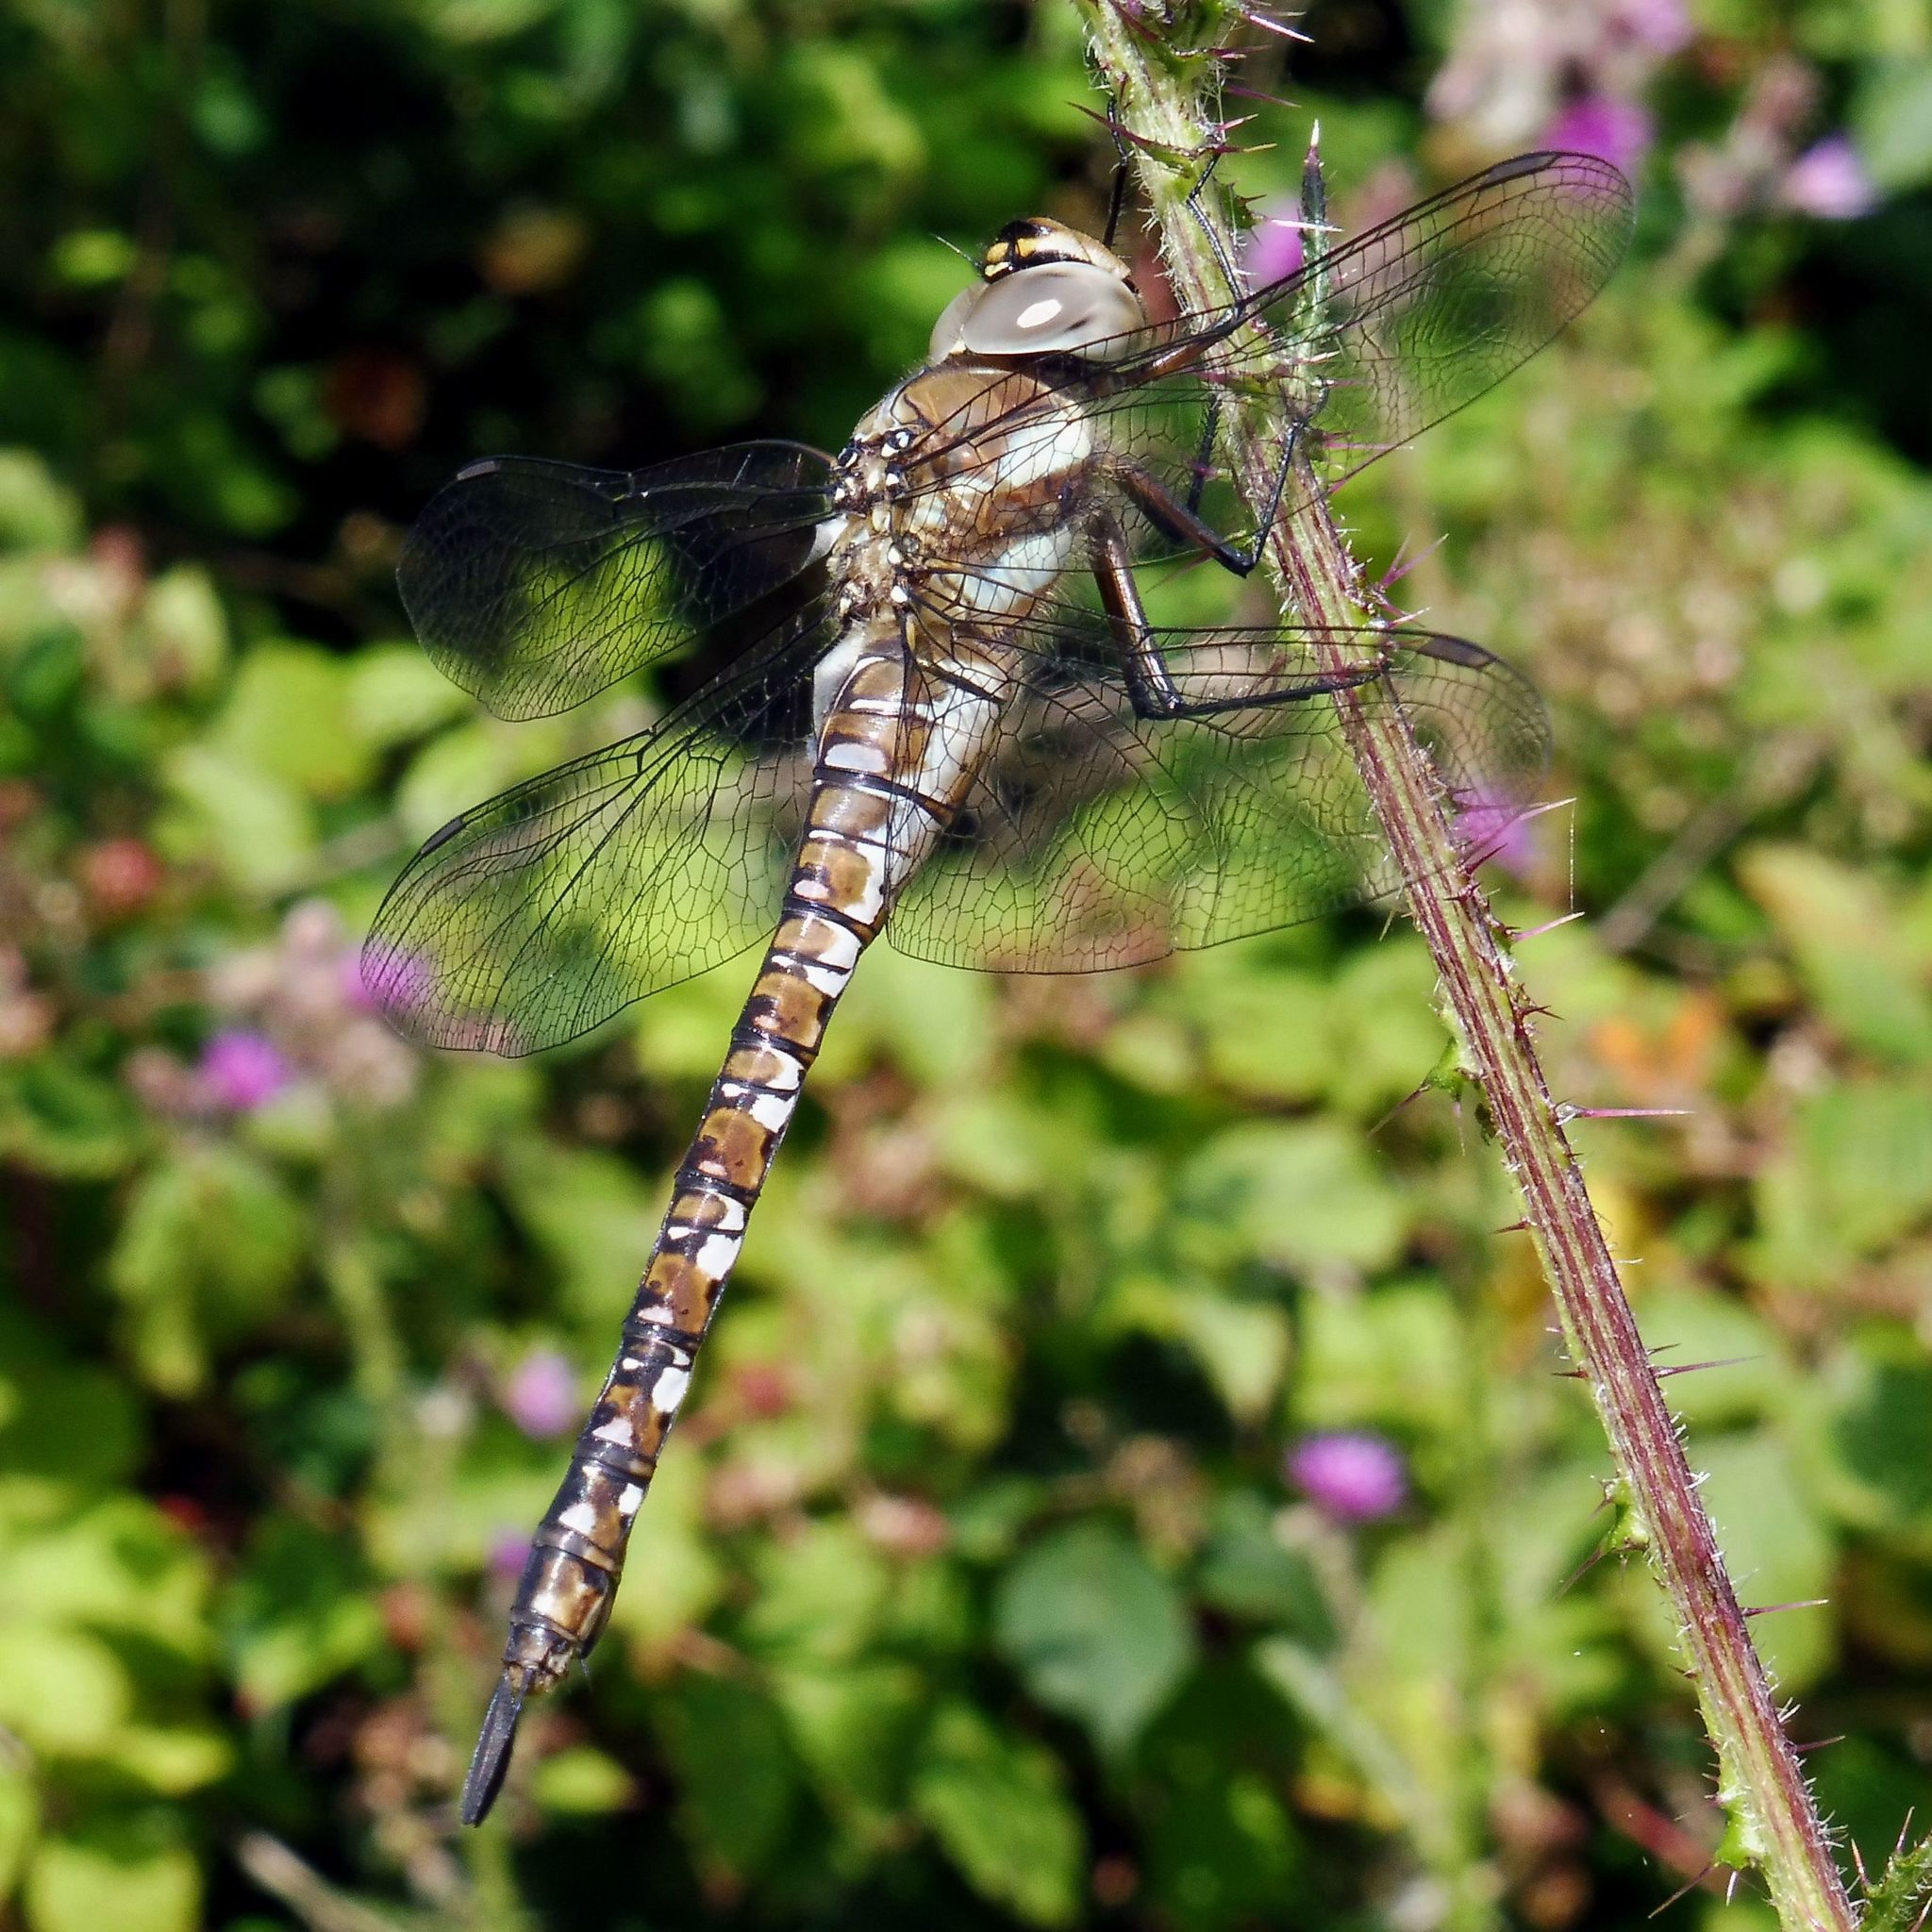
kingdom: Animalia
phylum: Arthropoda
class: Insecta
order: Odonata
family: Aeshnidae
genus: Aeshna
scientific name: Aeshna mixta
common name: Migrant hawker
